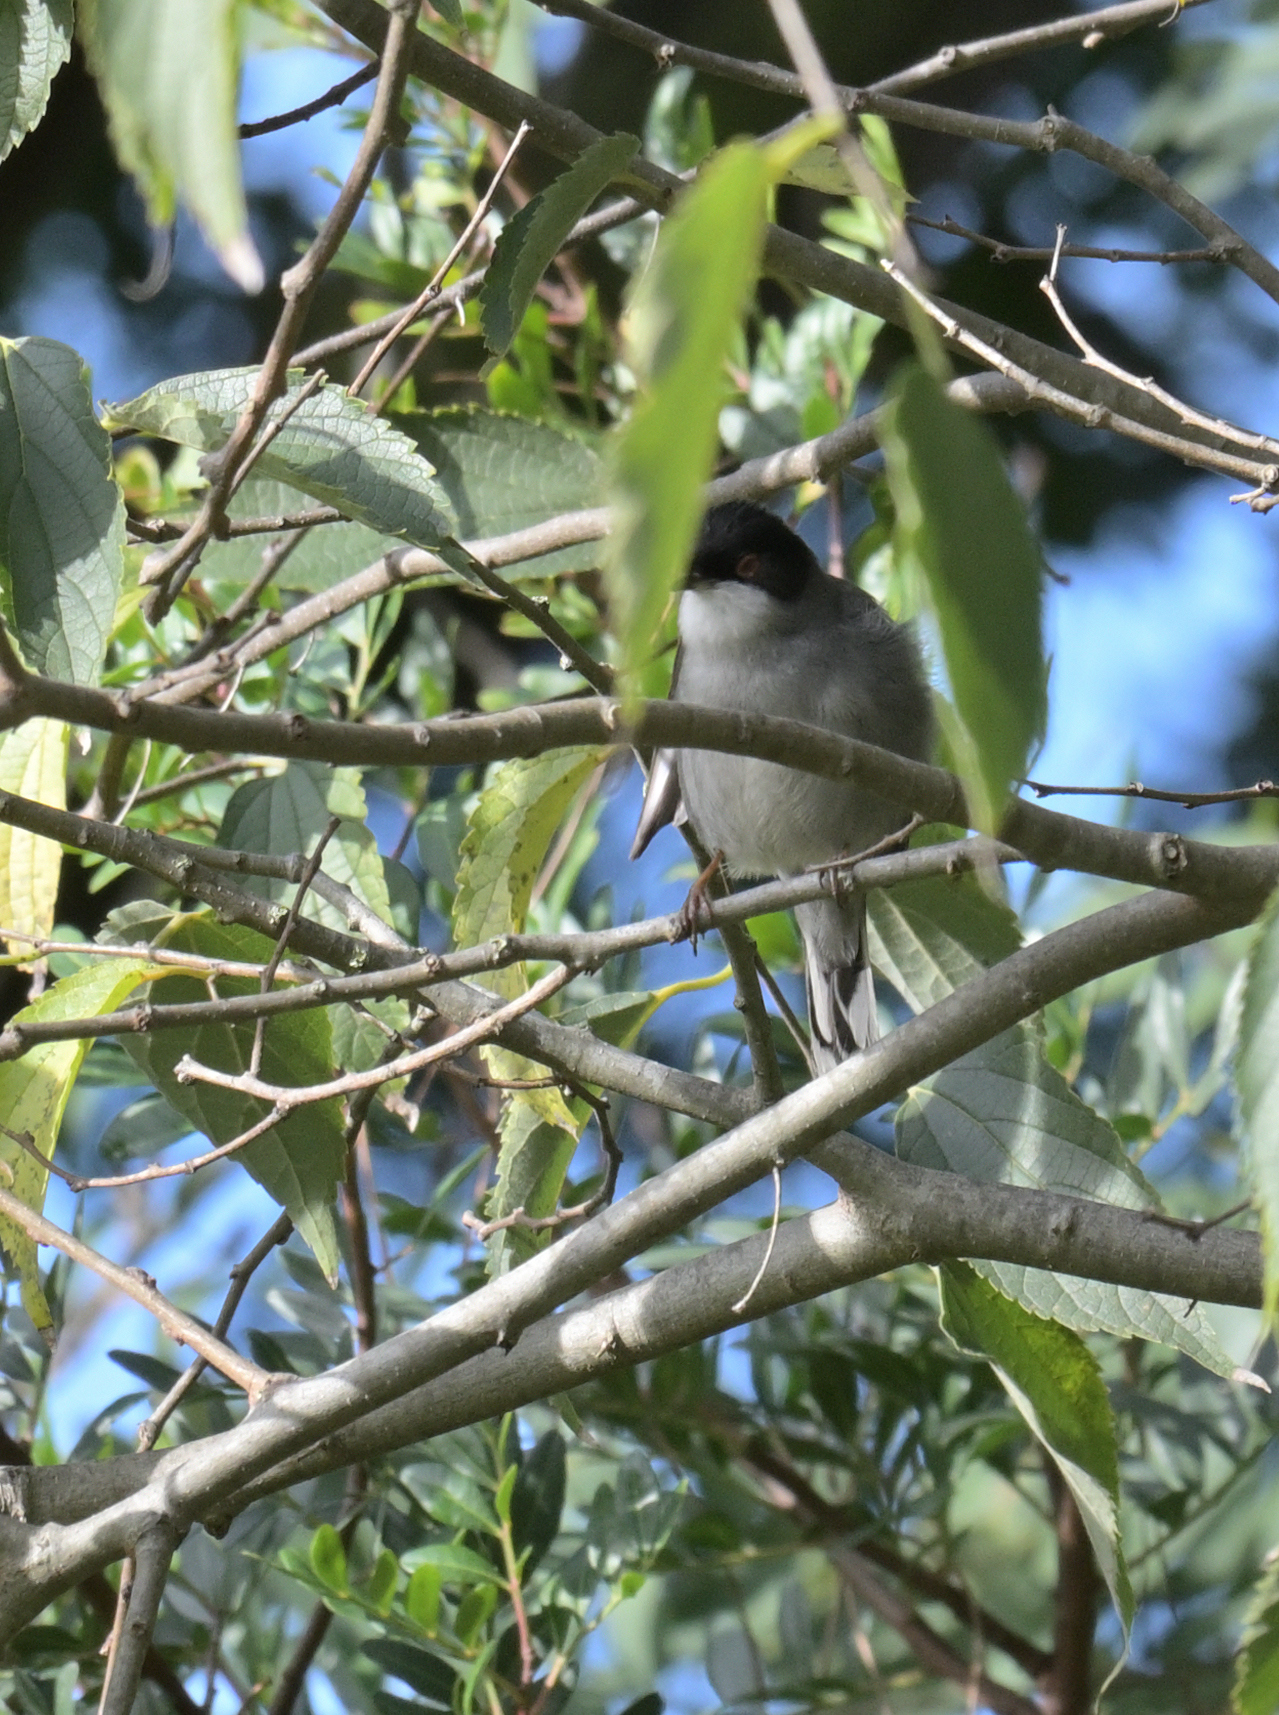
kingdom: Animalia
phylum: Chordata
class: Aves
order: Passeriformes
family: Sylviidae
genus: Curruca
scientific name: Curruca melanocephala
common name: Sardinian warbler
